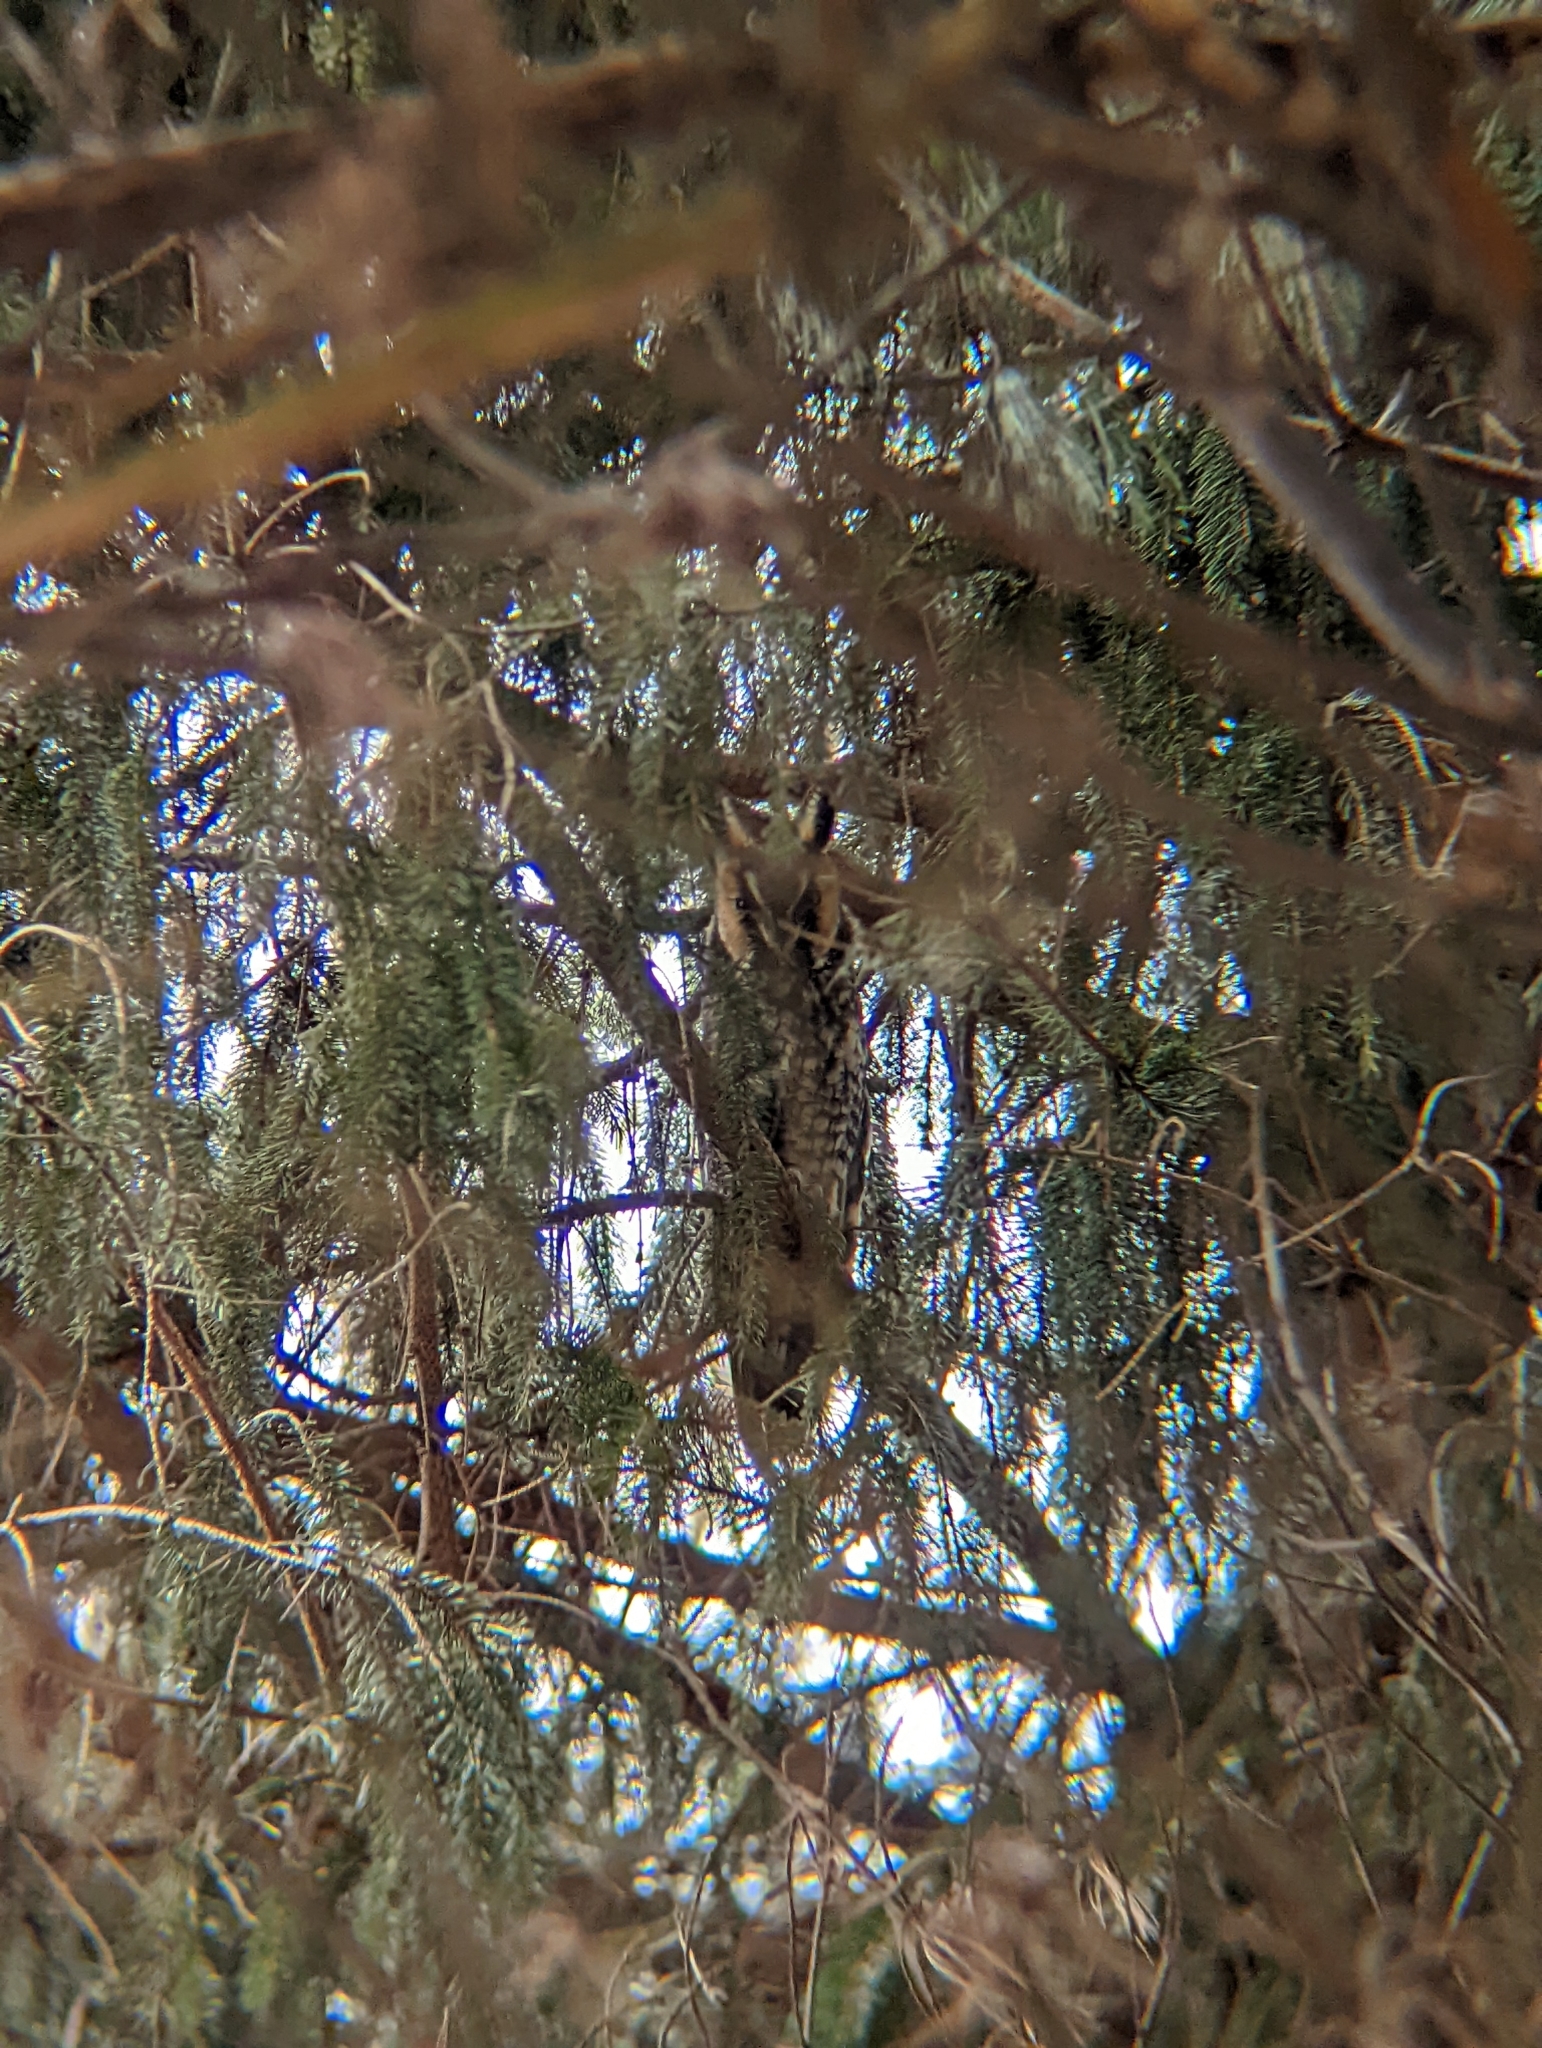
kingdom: Animalia
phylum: Chordata
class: Aves
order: Strigiformes
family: Strigidae
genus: Asio
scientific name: Asio otus
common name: Long-eared owl
